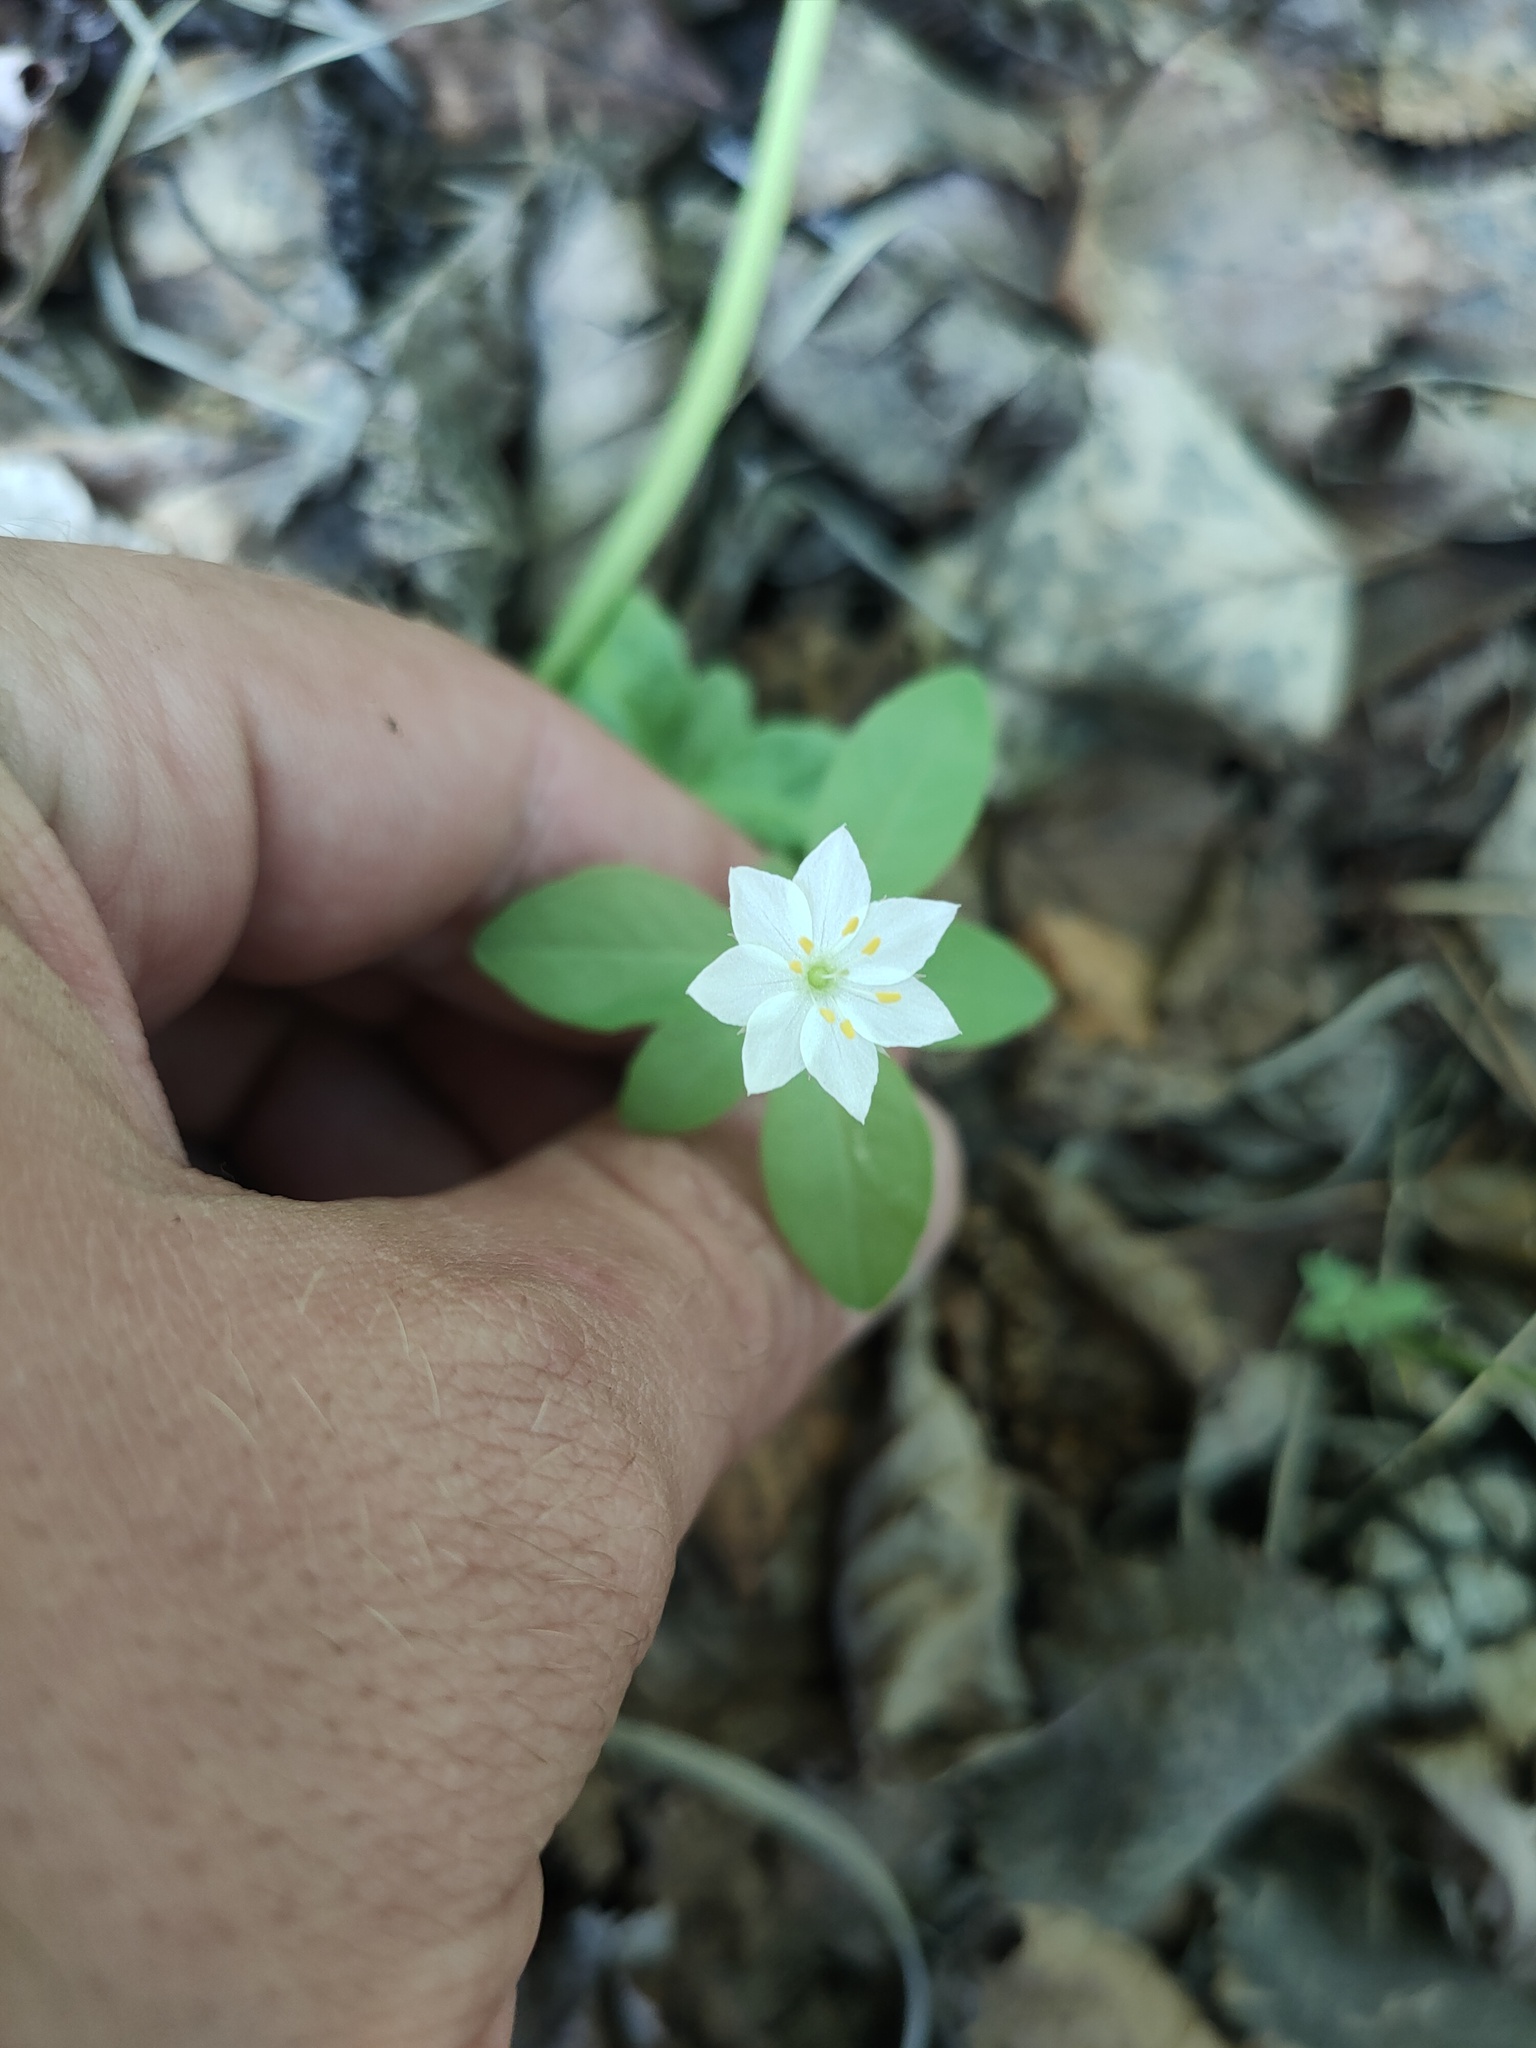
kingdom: Plantae
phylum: Tracheophyta
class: Magnoliopsida
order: Ericales
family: Primulaceae
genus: Lysimachia
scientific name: Lysimachia europaea
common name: Arctic starflower
